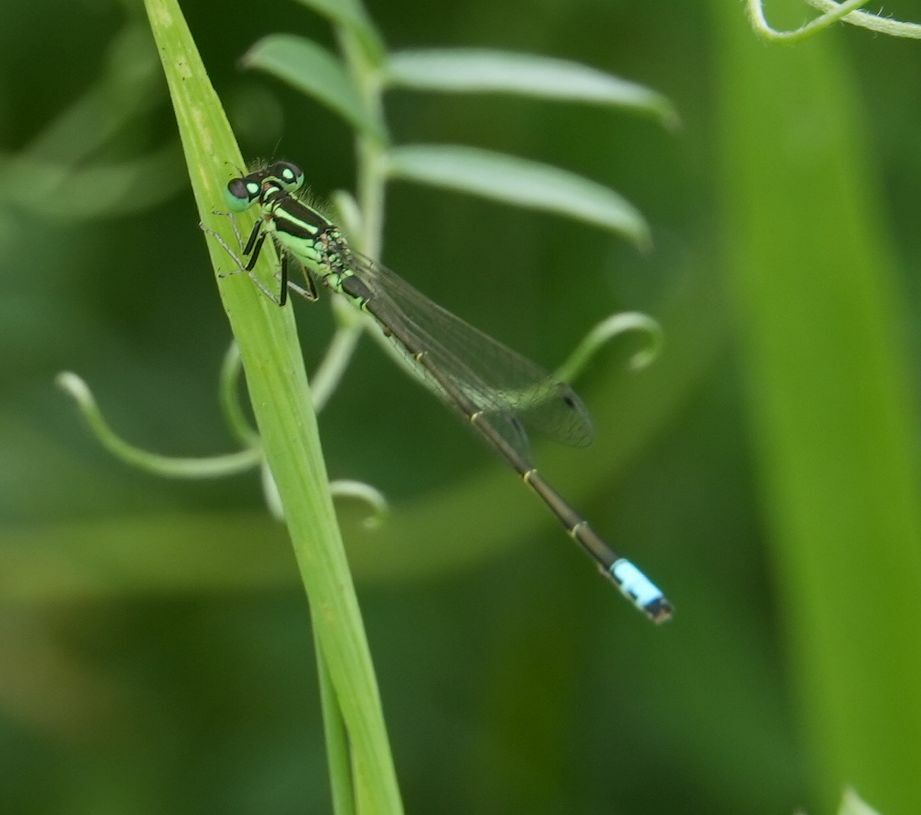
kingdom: Animalia
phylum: Arthropoda
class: Insecta
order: Odonata
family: Coenagrionidae
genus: Ischnura
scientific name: Ischnura verticalis
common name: Eastern forktail
